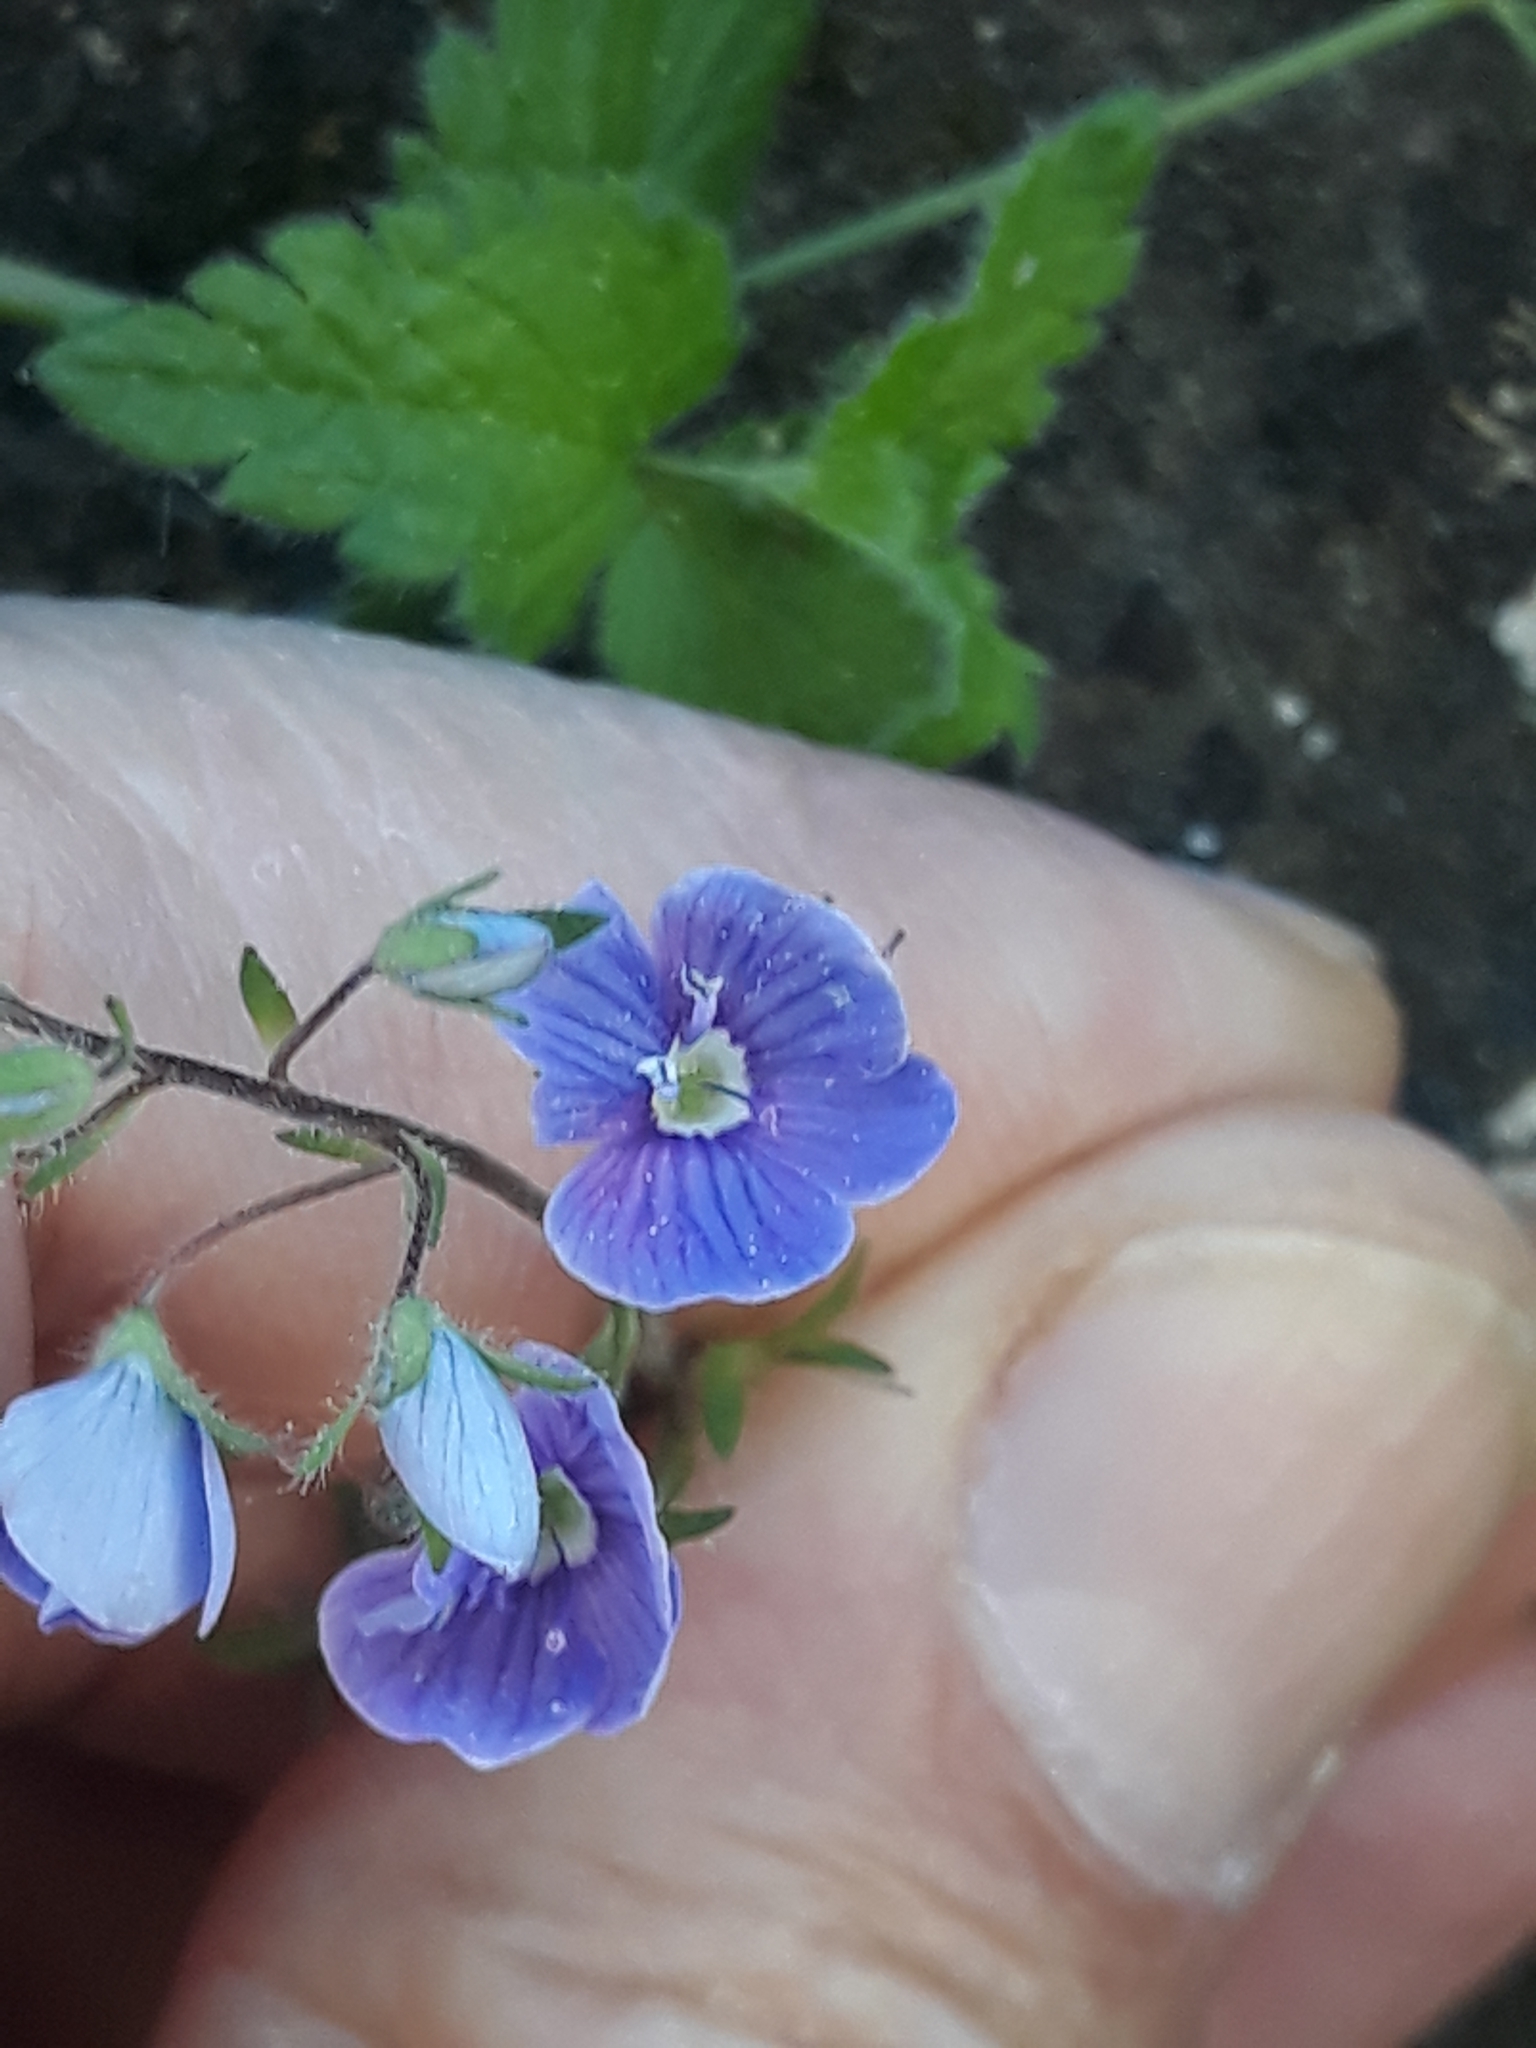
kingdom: Plantae
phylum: Tracheophyta
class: Magnoliopsida
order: Lamiales
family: Plantaginaceae
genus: Veronica
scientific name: Veronica chamaedrys
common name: Germander speedwell
